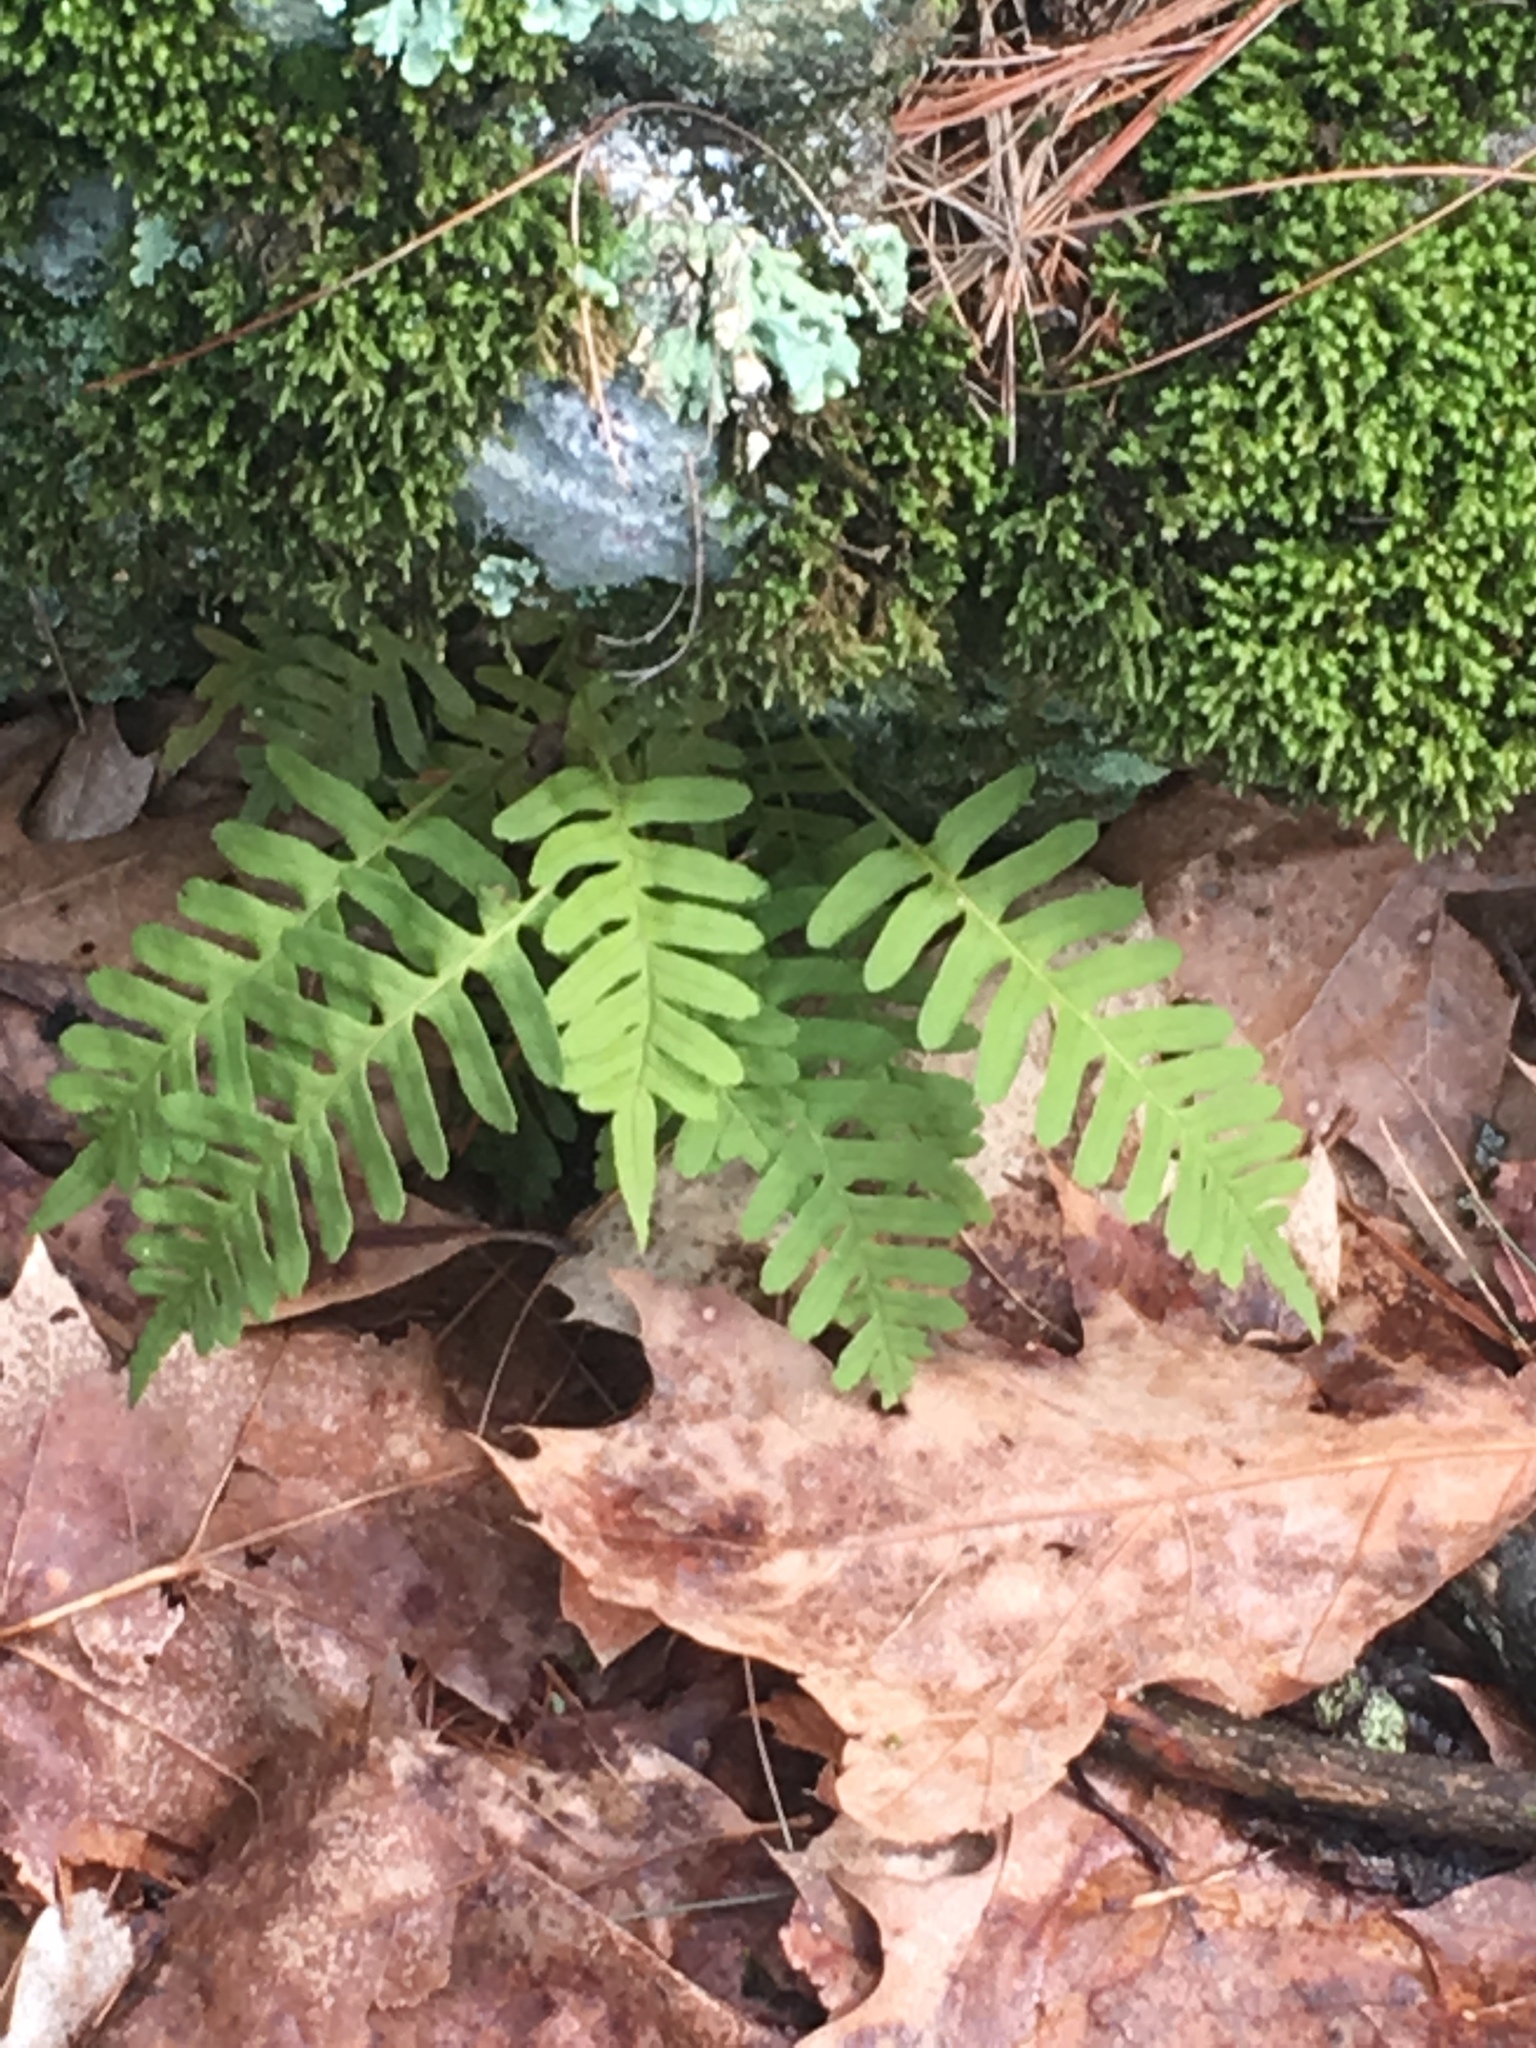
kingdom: Plantae
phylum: Tracheophyta
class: Polypodiopsida
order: Polypodiales
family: Polypodiaceae
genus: Polypodium
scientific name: Polypodium virginianum
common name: American wall fern
